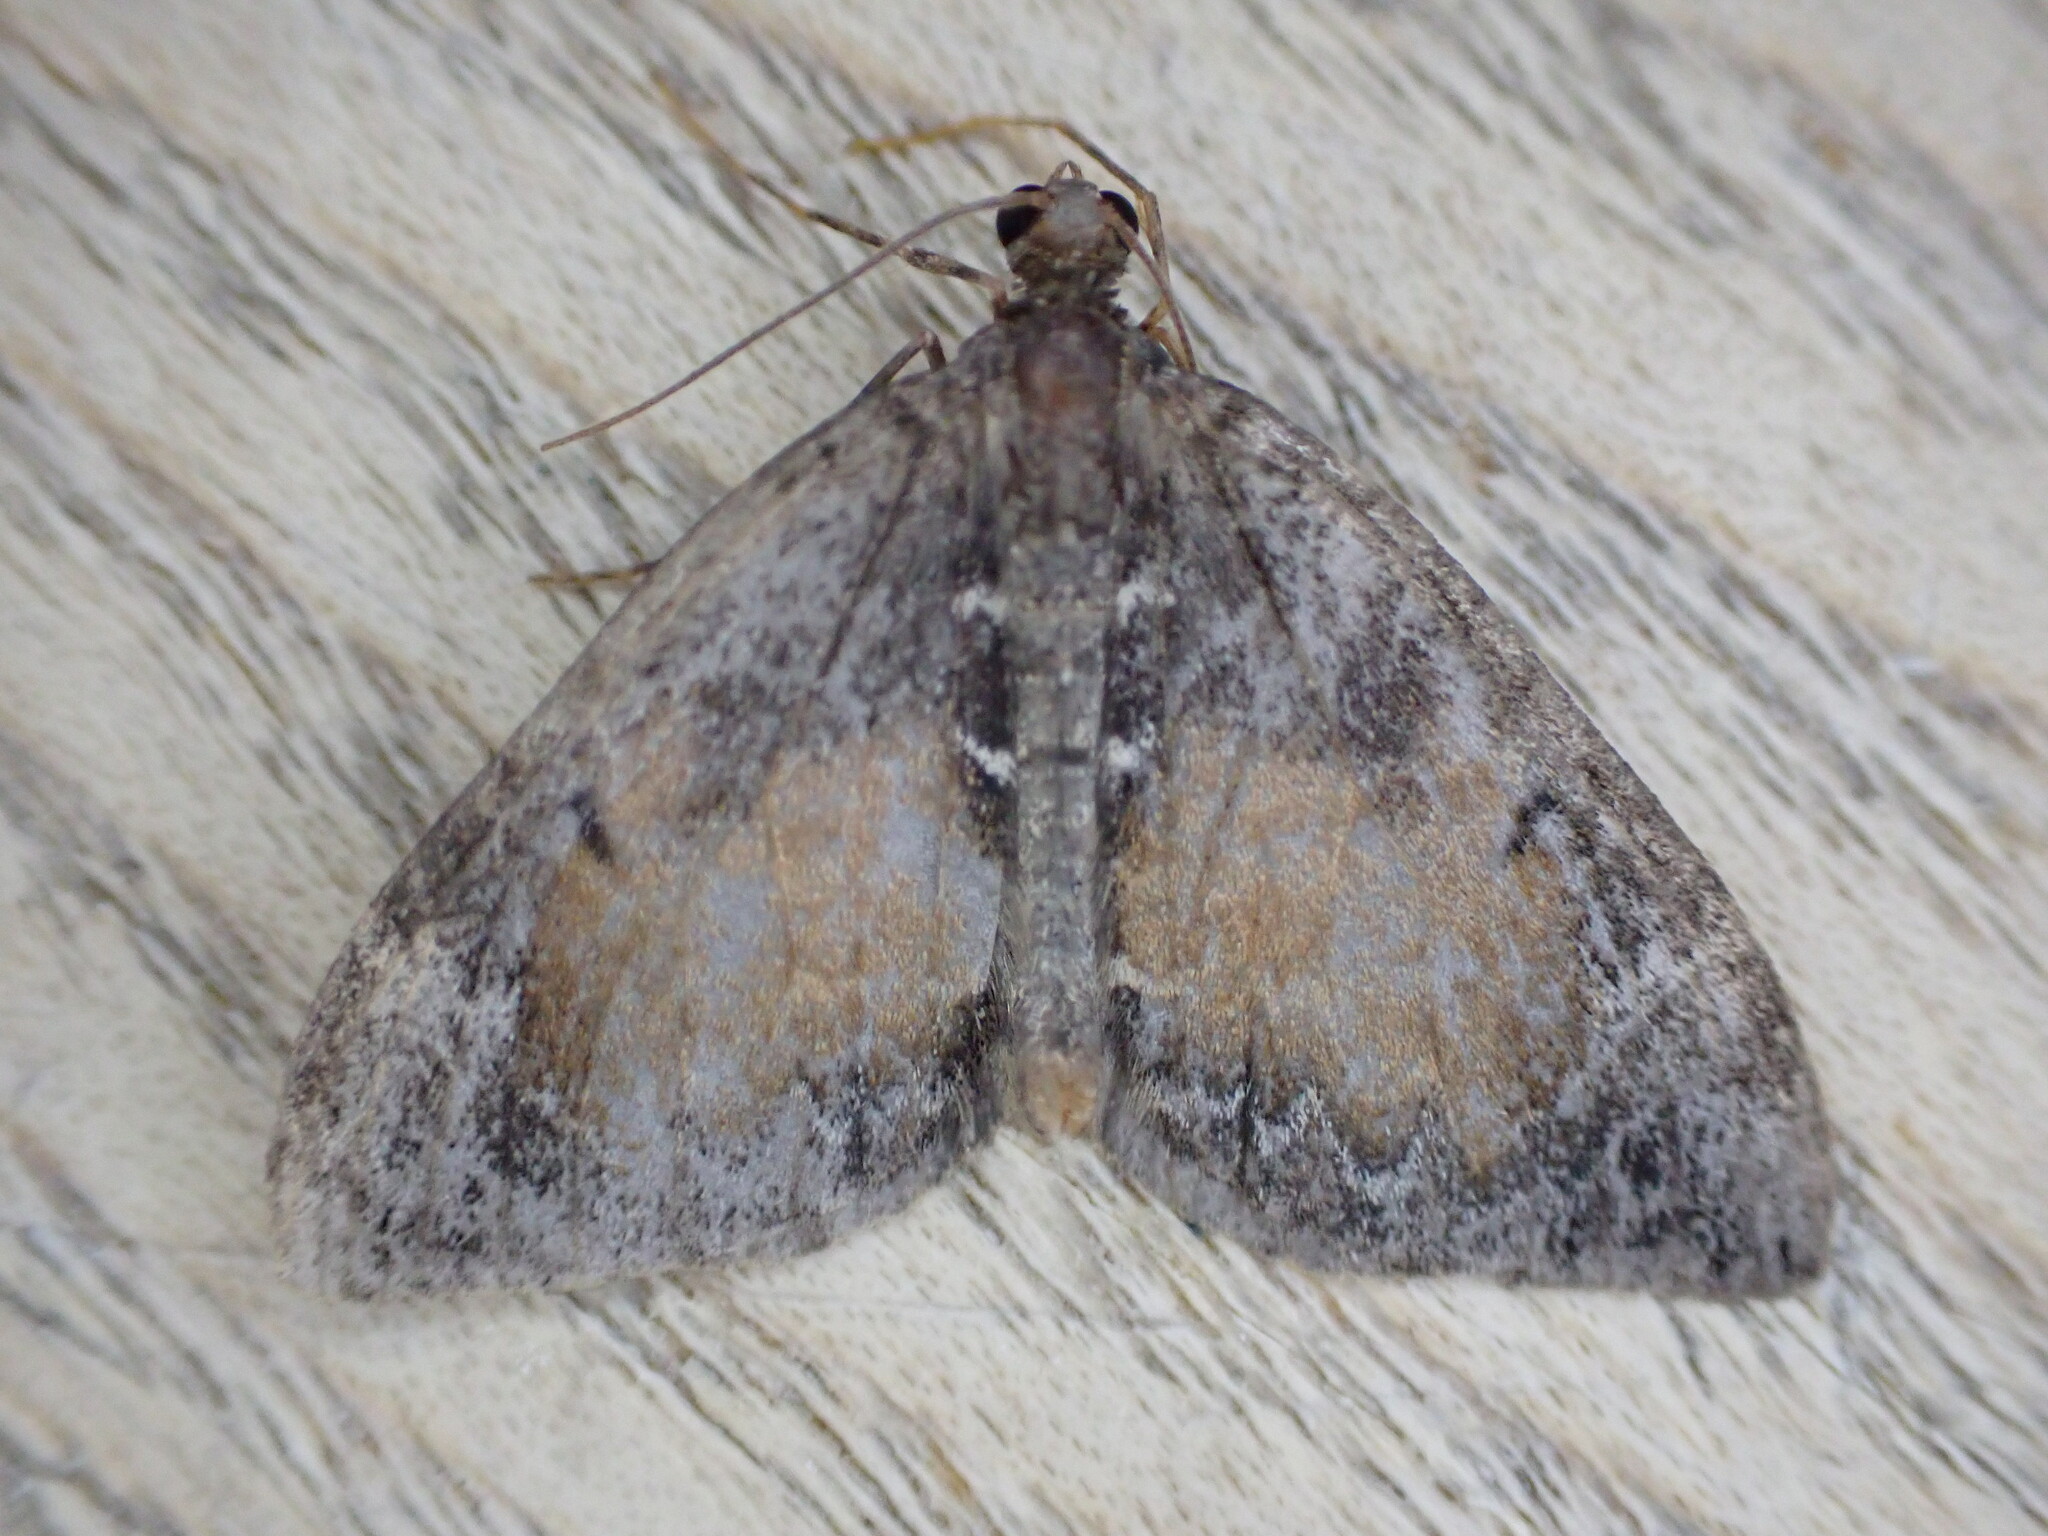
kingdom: Animalia
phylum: Arthropoda
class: Insecta
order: Lepidoptera
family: Geometridae
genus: Dysstroma
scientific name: Dysstroma truncata
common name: Common marbled carpet
